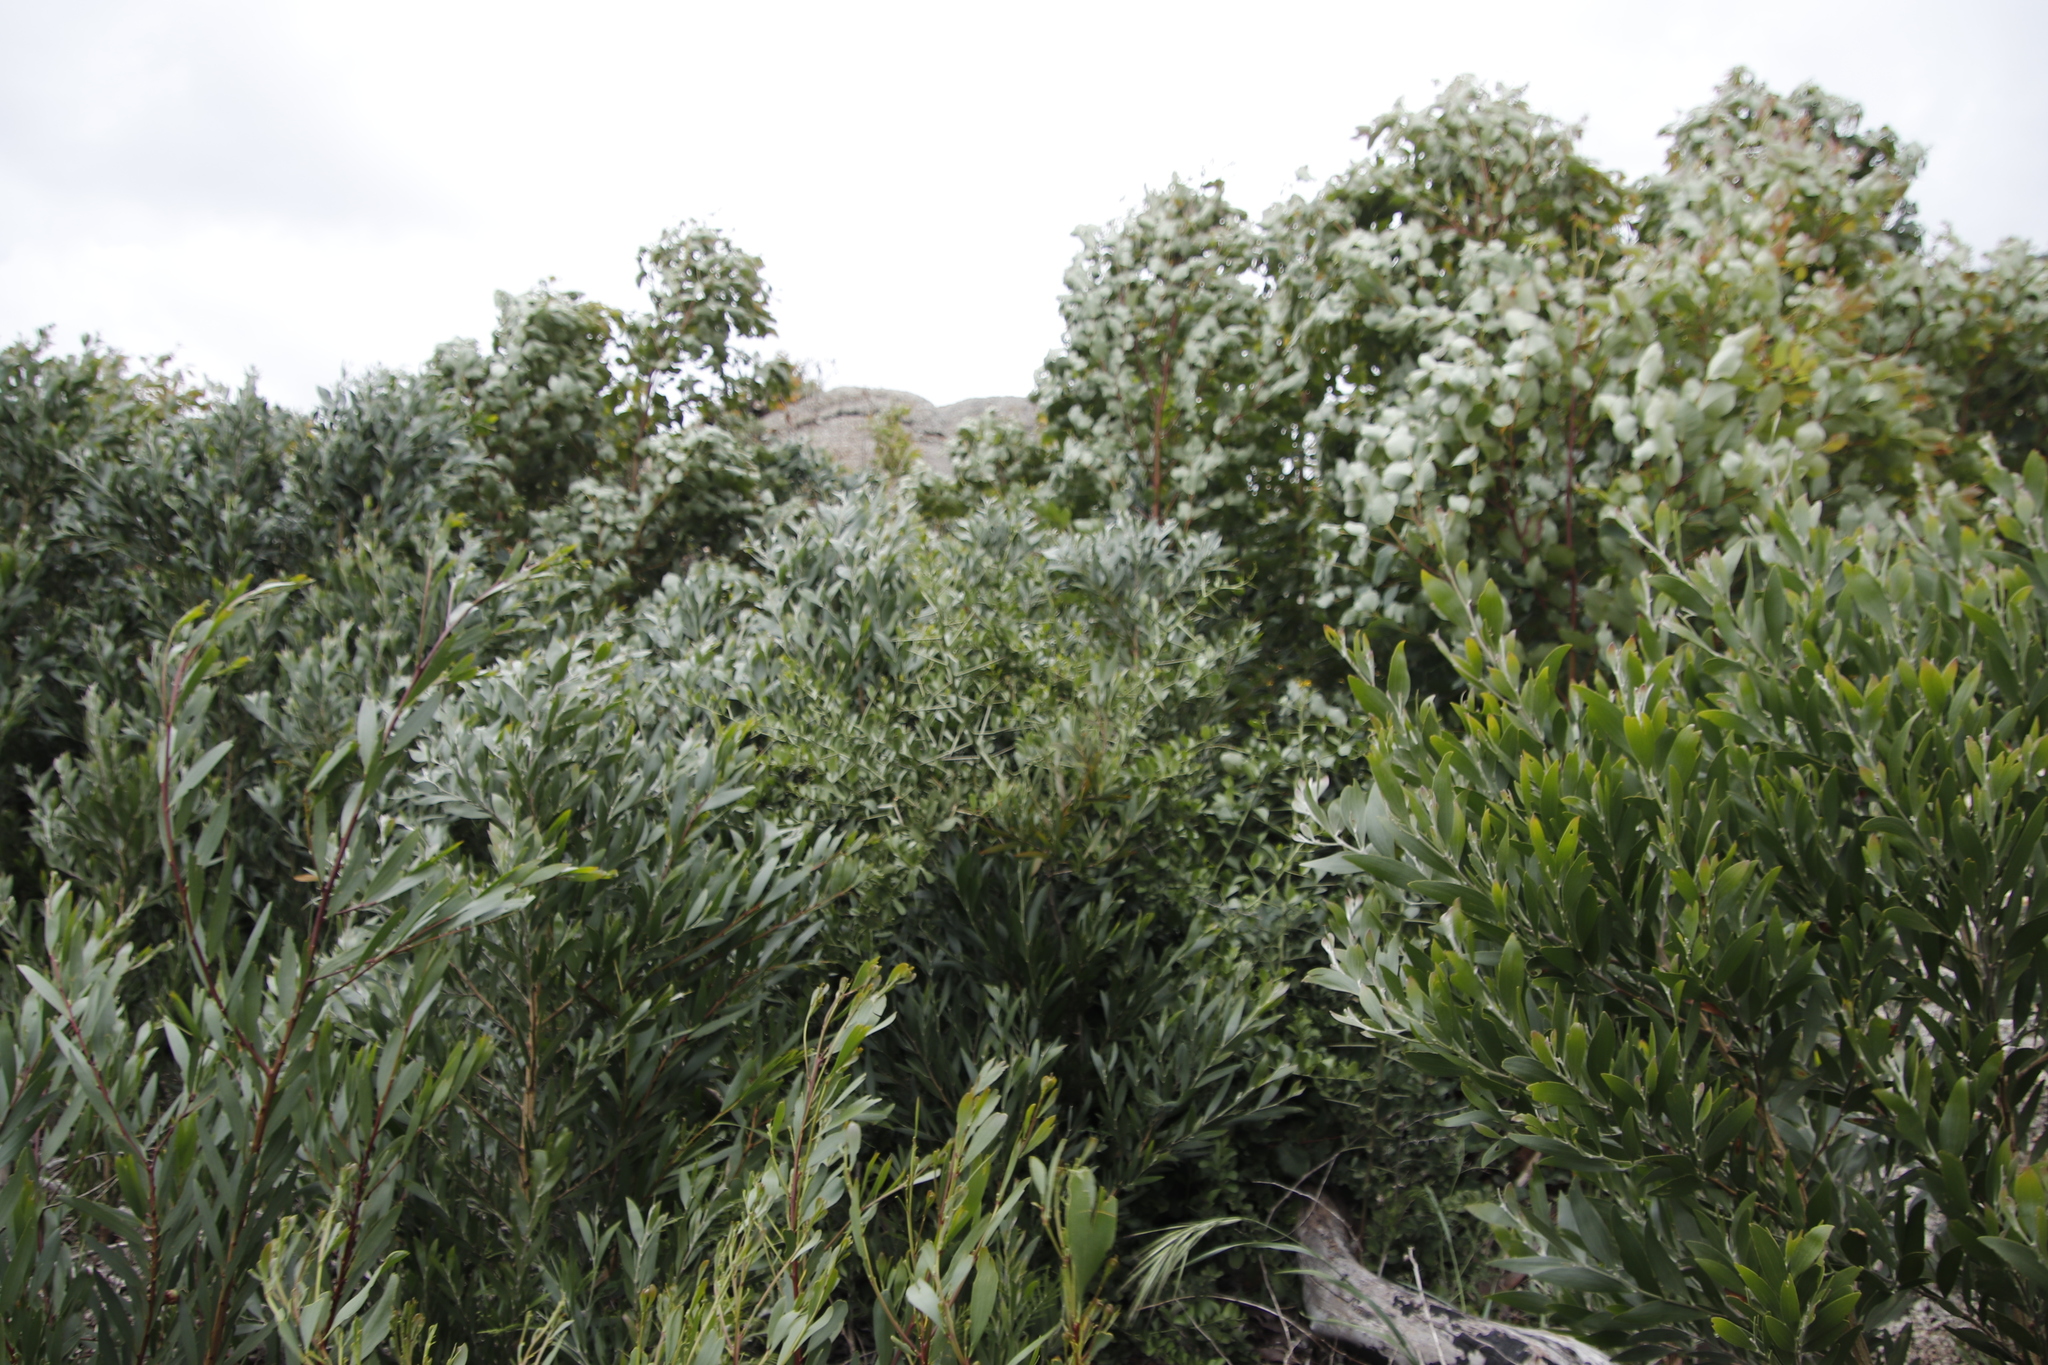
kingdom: Plantae
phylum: Tracheophyta
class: Magnoliopsida
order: Celastrales
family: Celastraceae
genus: Gymnosporia
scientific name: Gymnosporia buxifolia
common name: Common spike-thorn
